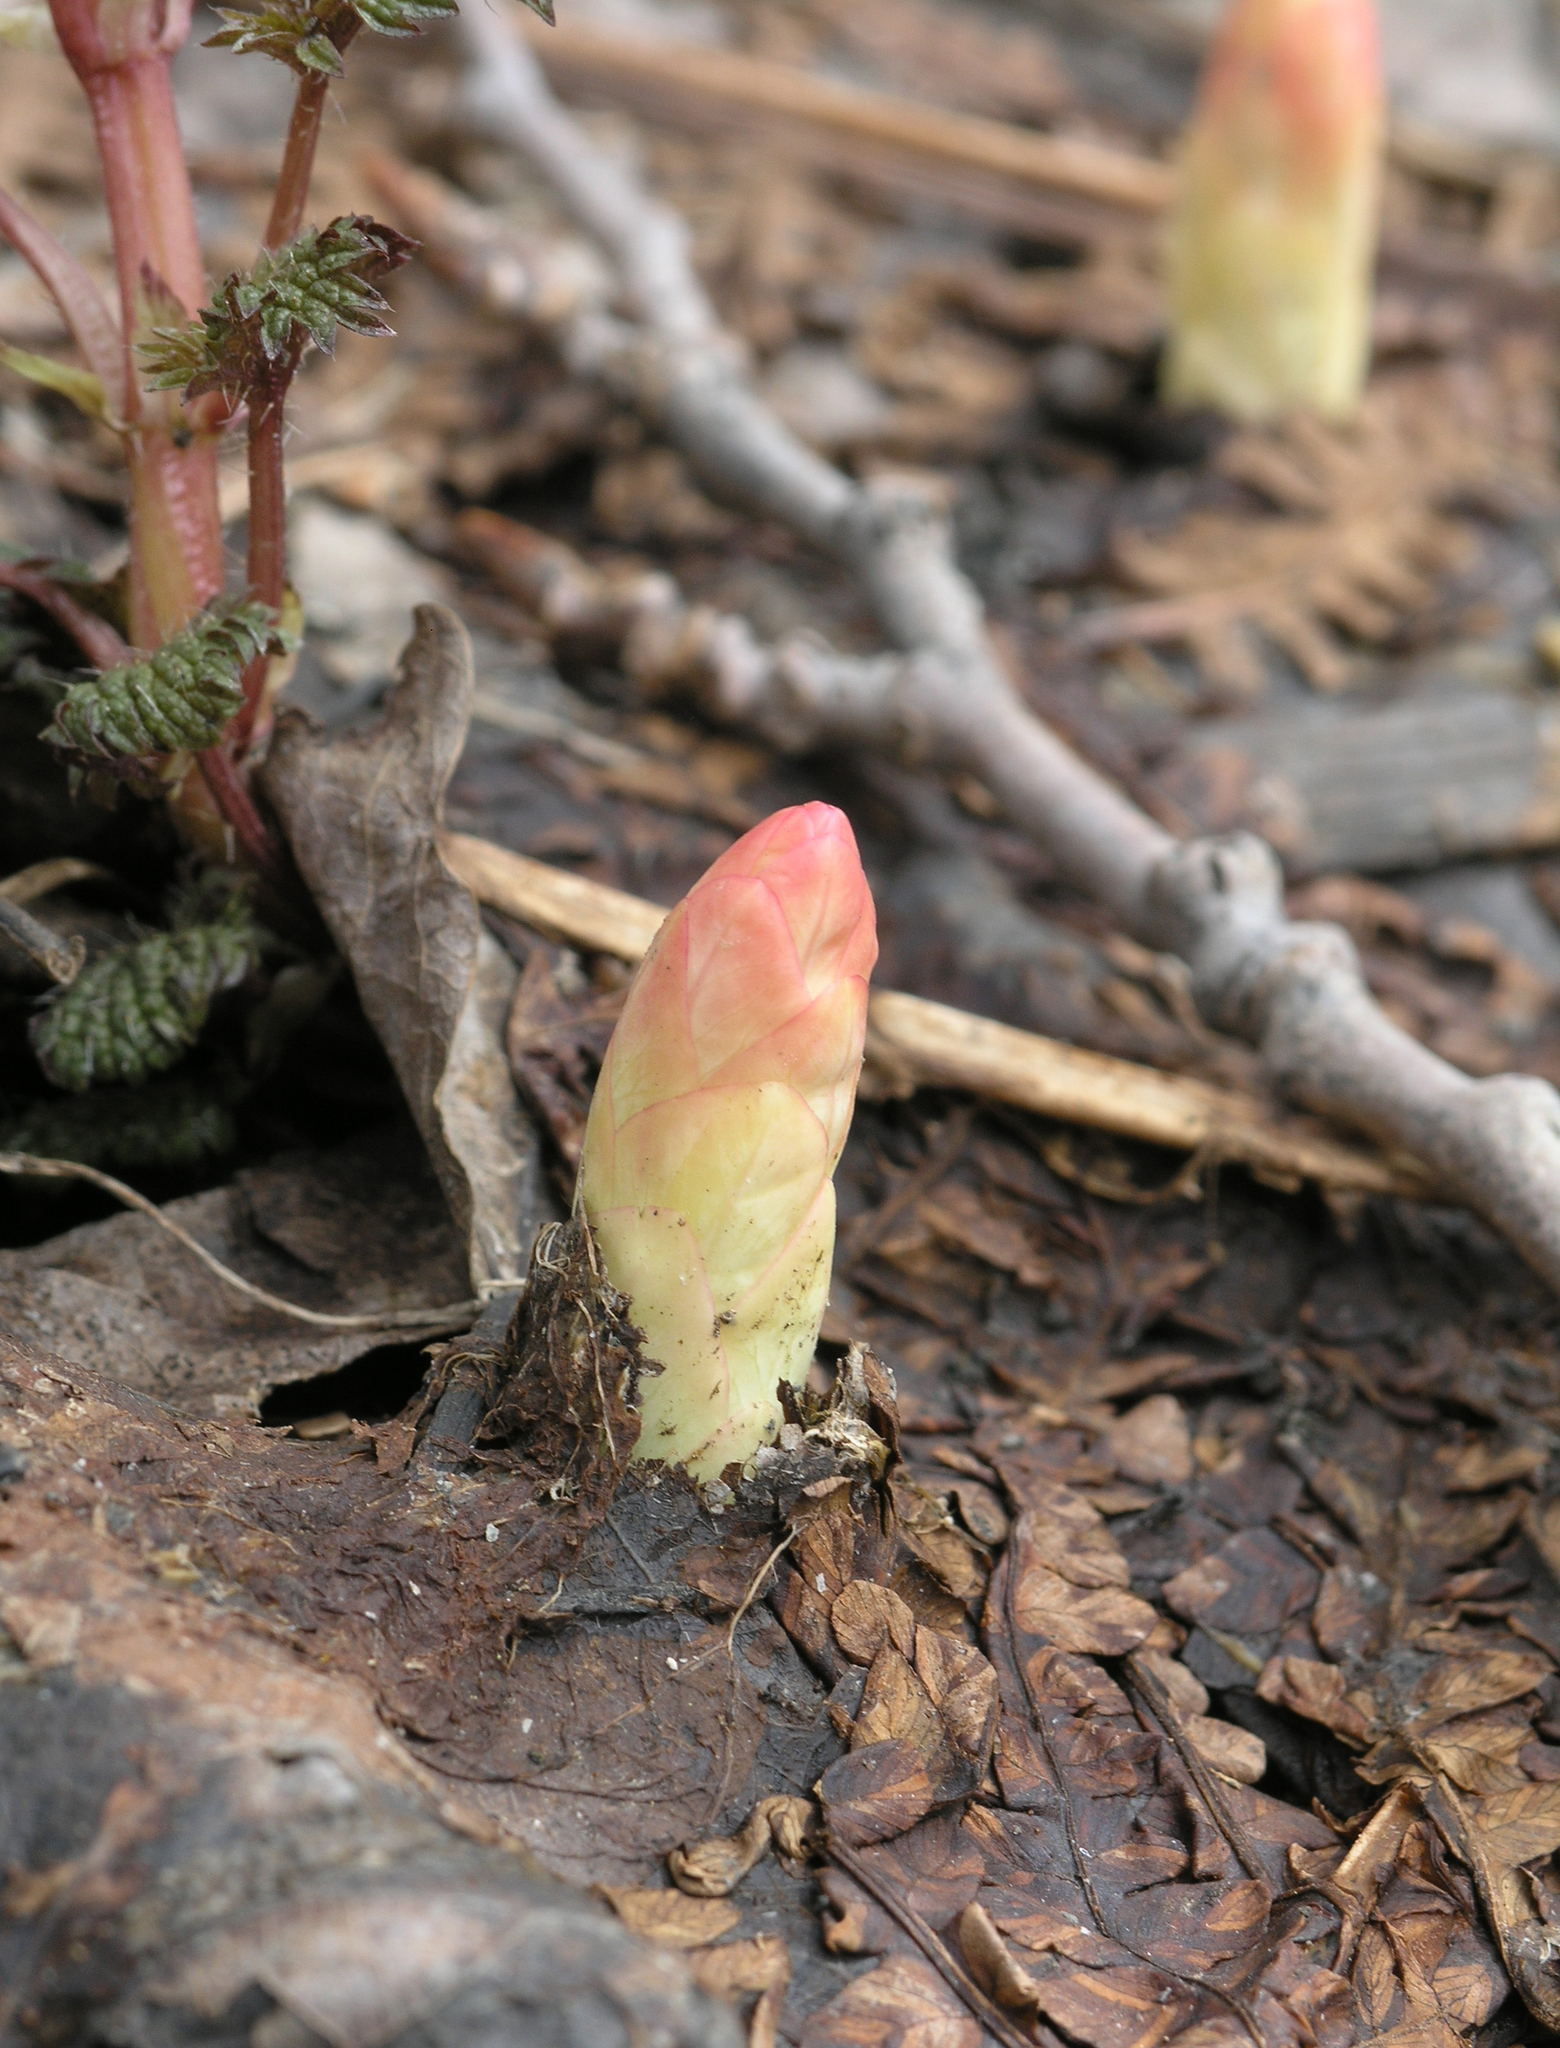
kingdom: Plantae
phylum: Tracheophyta
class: Magnoliopsida
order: Malpighiales
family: Euphorbiaceae
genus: Euphorbia
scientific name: Euphorbia pilosa
